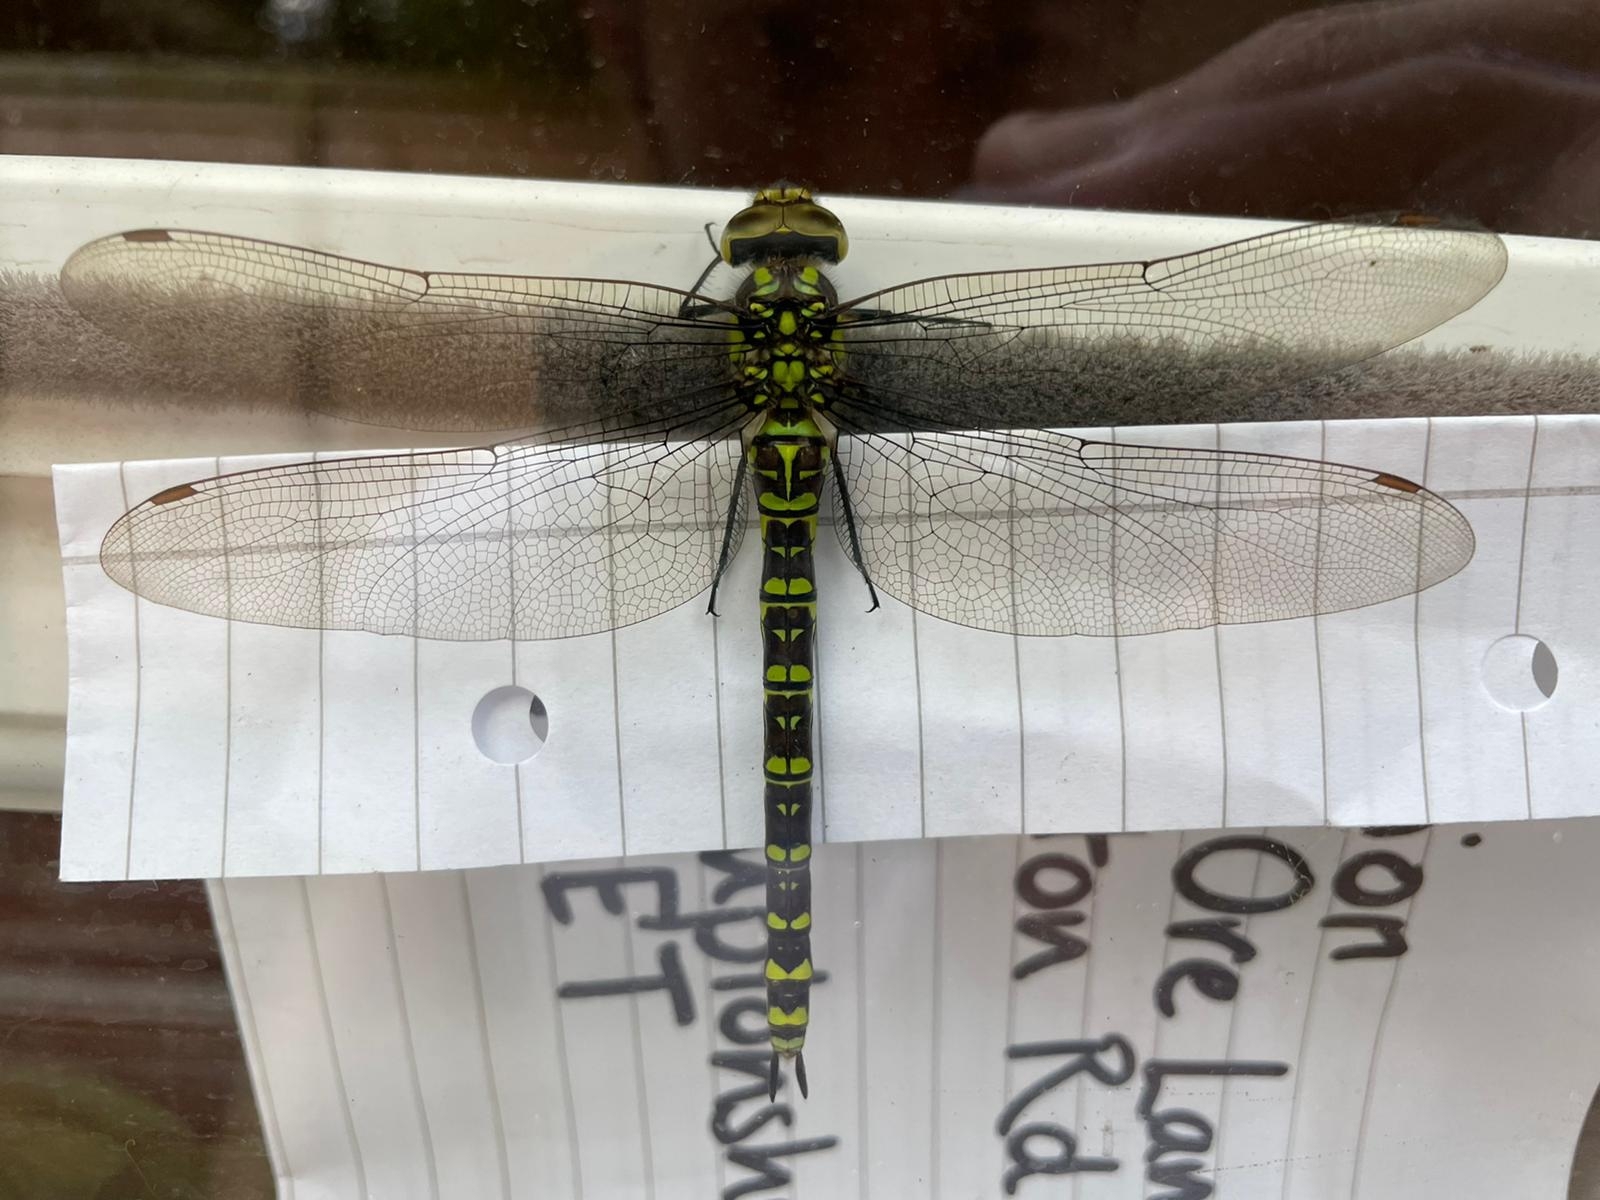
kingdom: Animalia
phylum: Arthropoda
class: Insecta
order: Odonata
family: Aeshnidae
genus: Aeshna
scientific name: Aeshna cyanea
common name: Southern hawker
